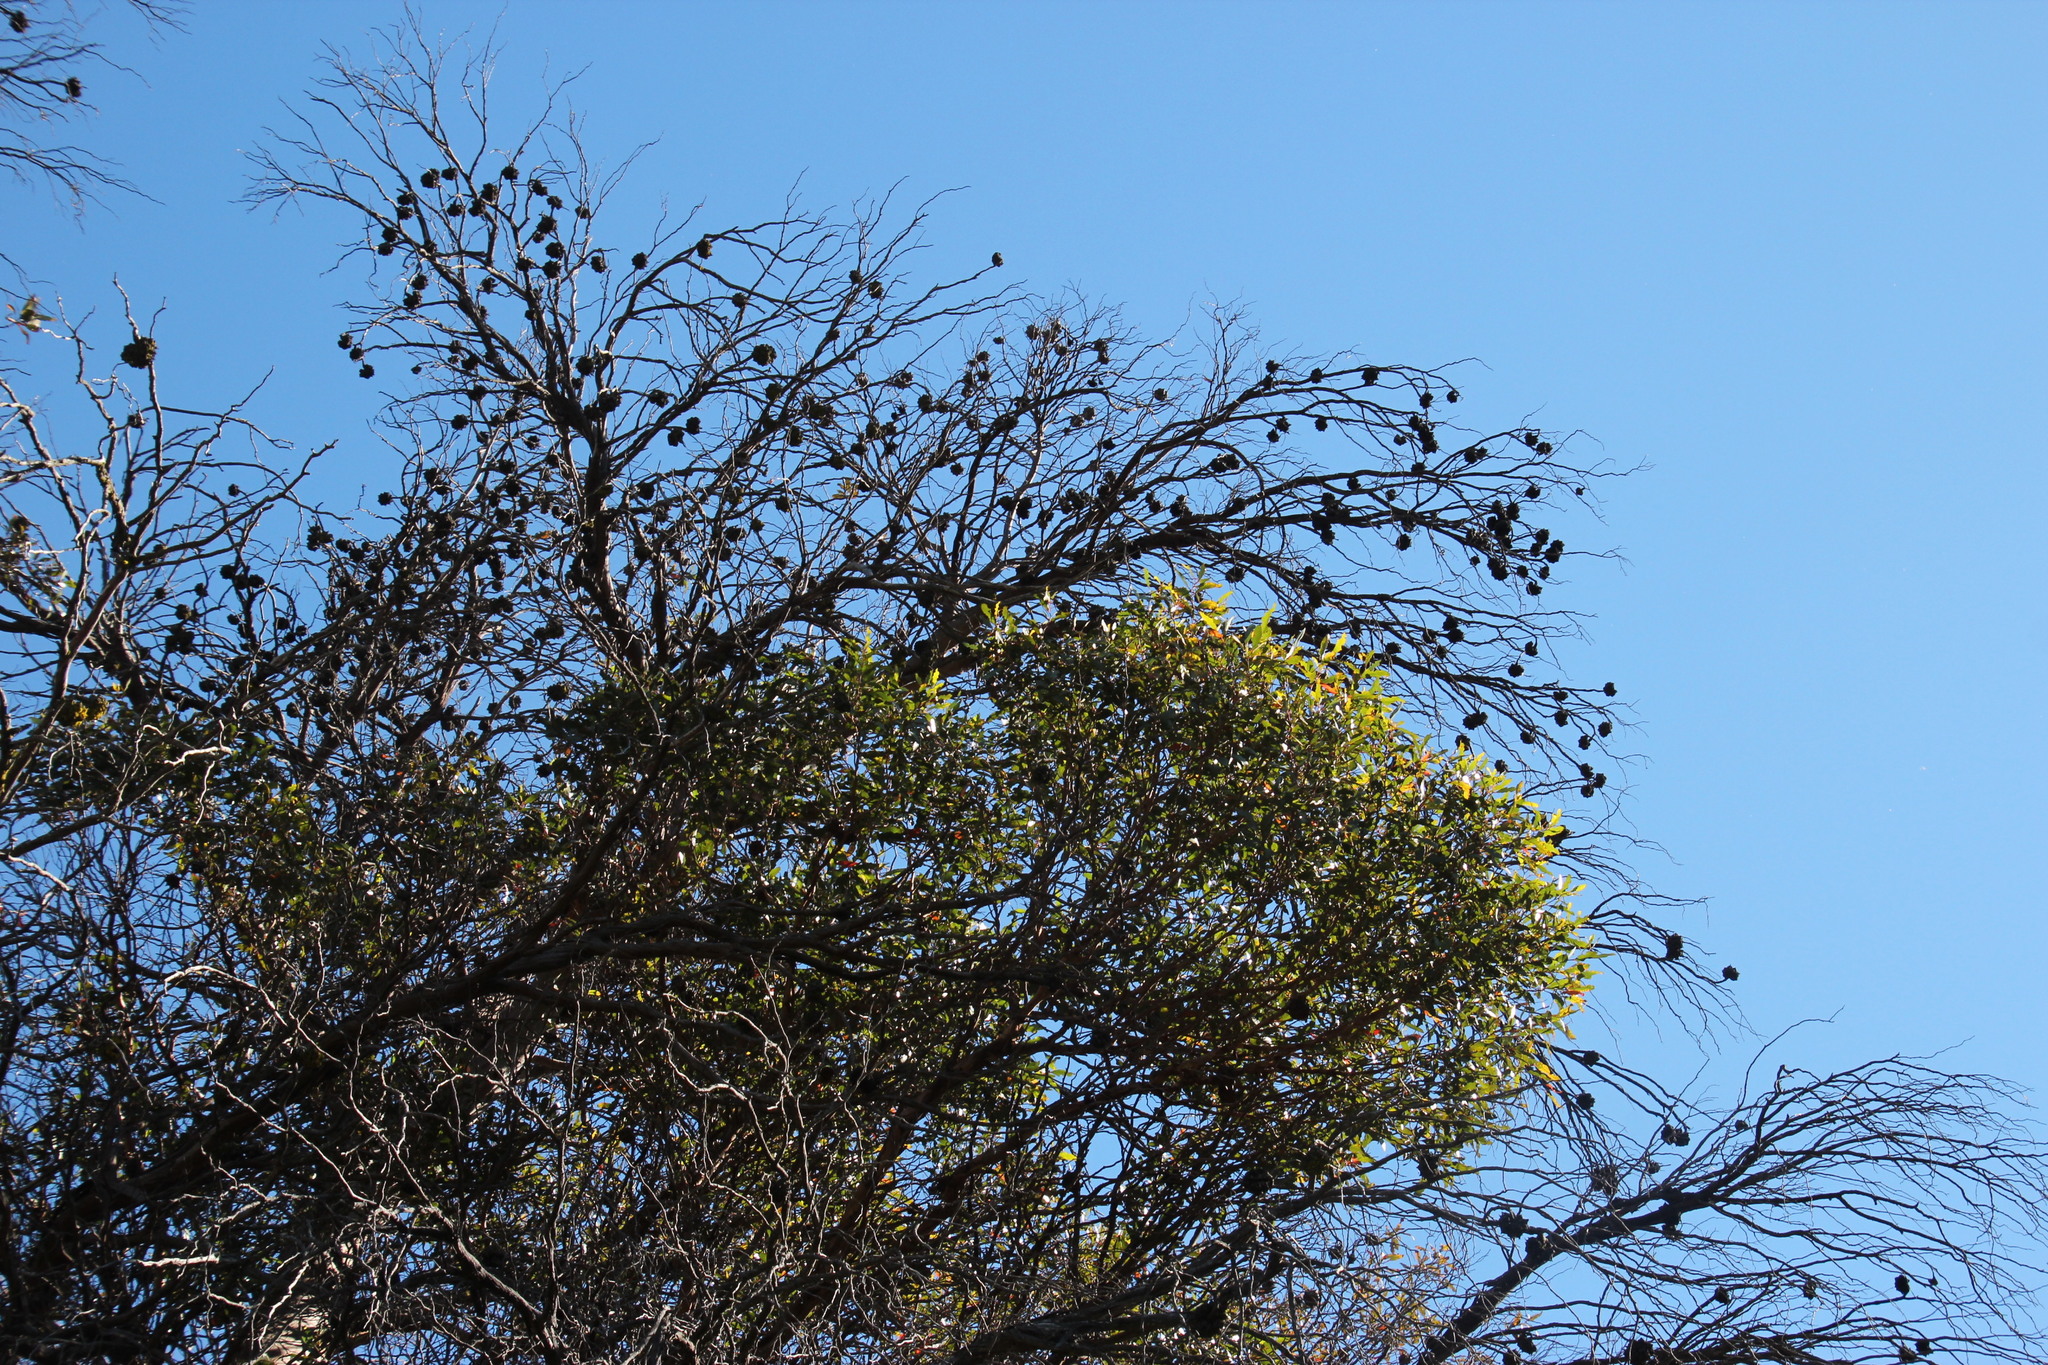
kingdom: Plantae
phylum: Tracheophyta
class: Magnoliopsida
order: Myrtales
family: Myrtaceae
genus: Eucalyptus
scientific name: Eucalyptus conferruminata
